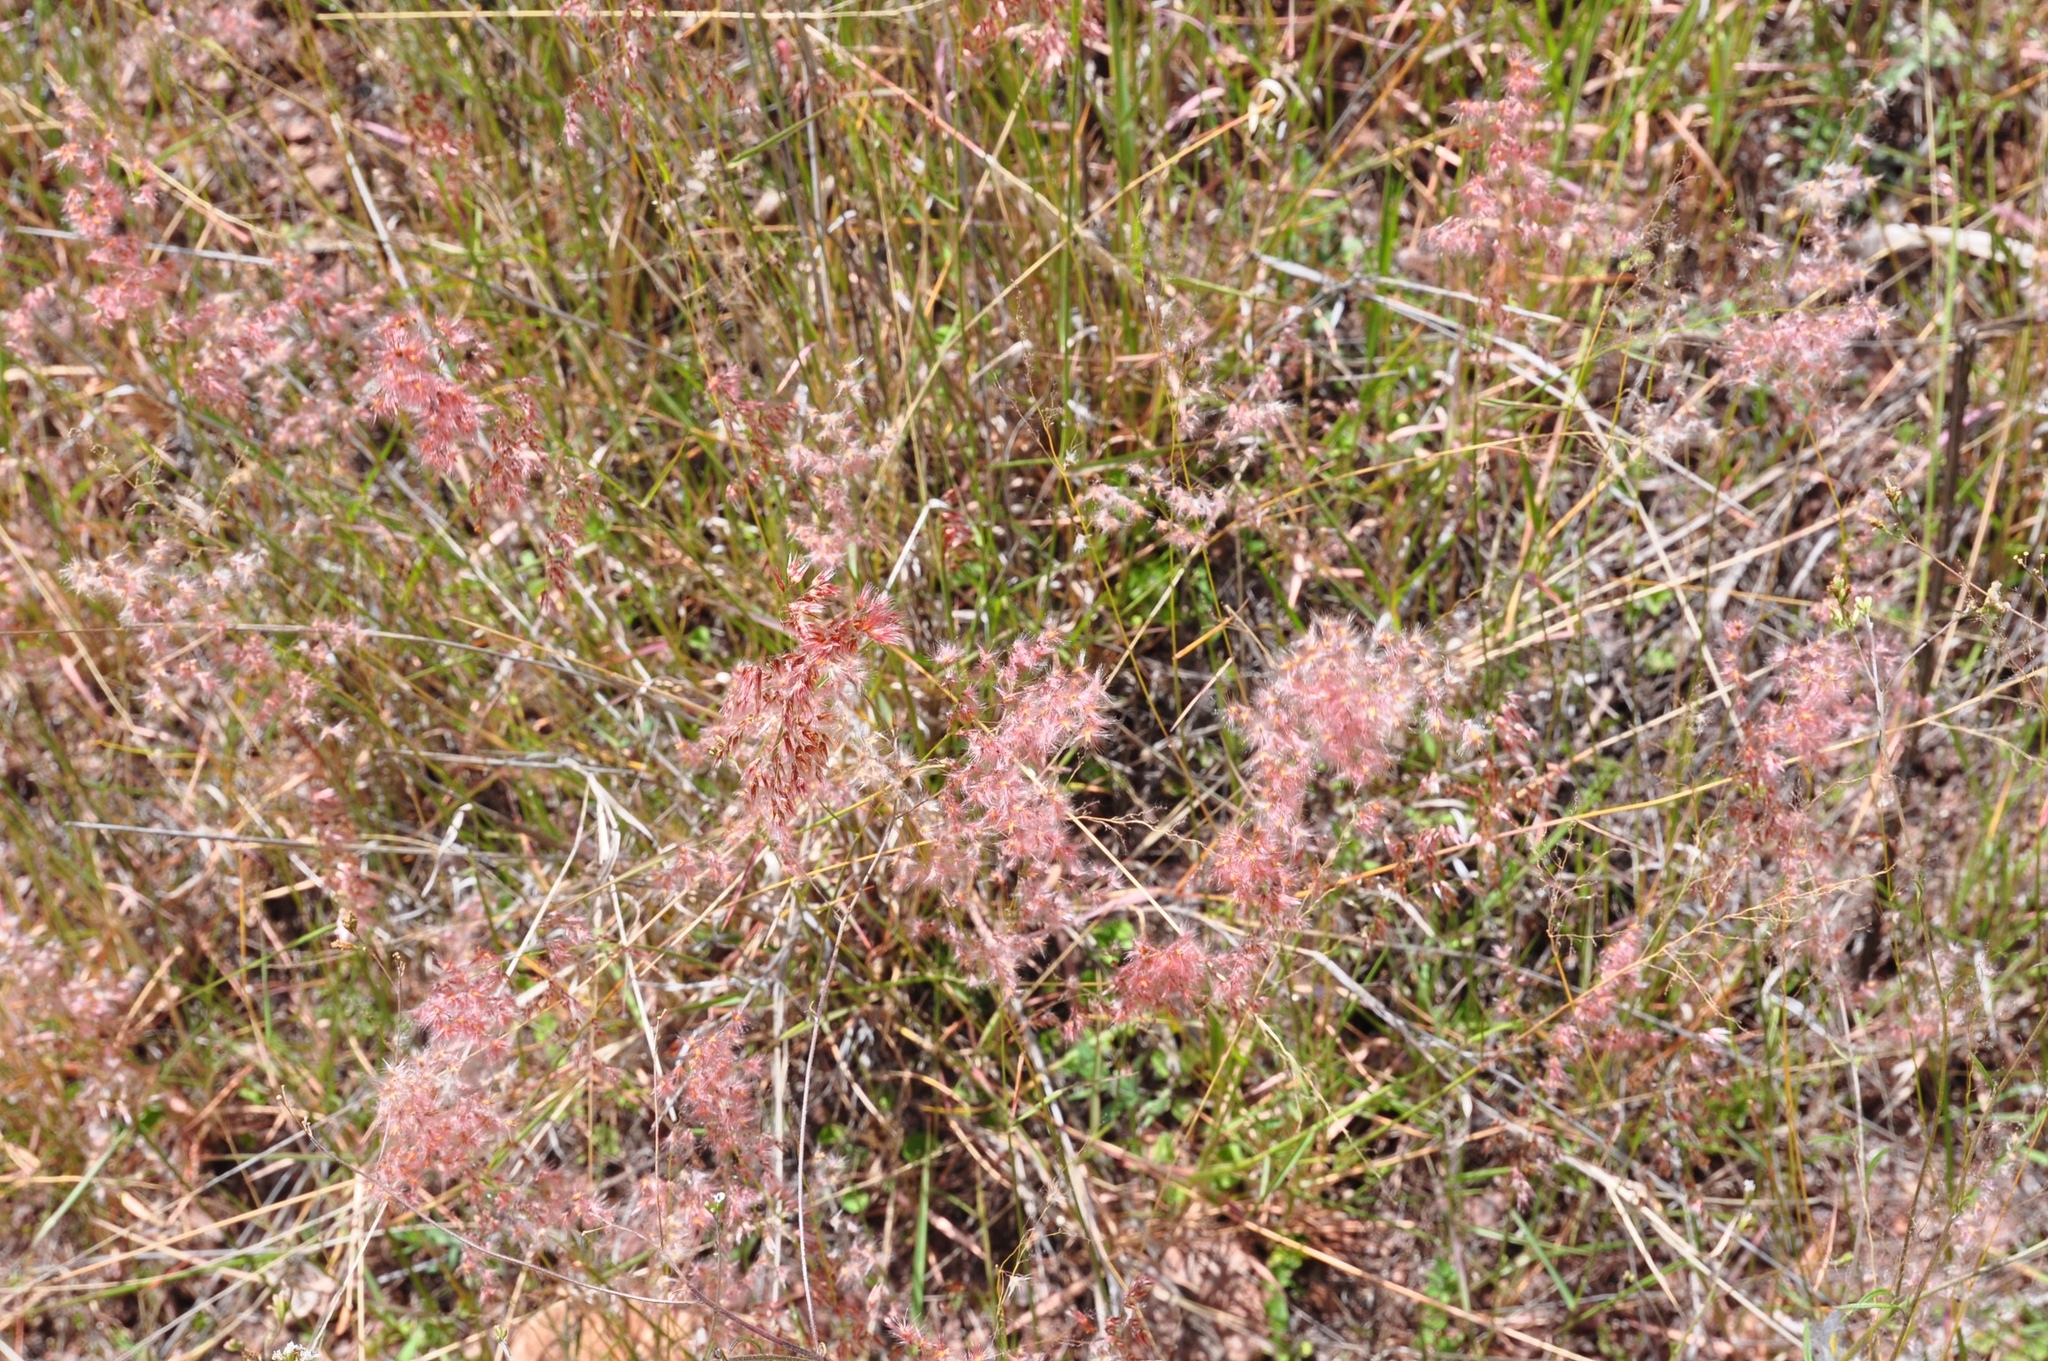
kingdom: Plantae
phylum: Tracheophyta
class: Liliopsida
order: Poales
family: Poaceae
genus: Melinis
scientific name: Melinis repens
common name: Rose natal grass
